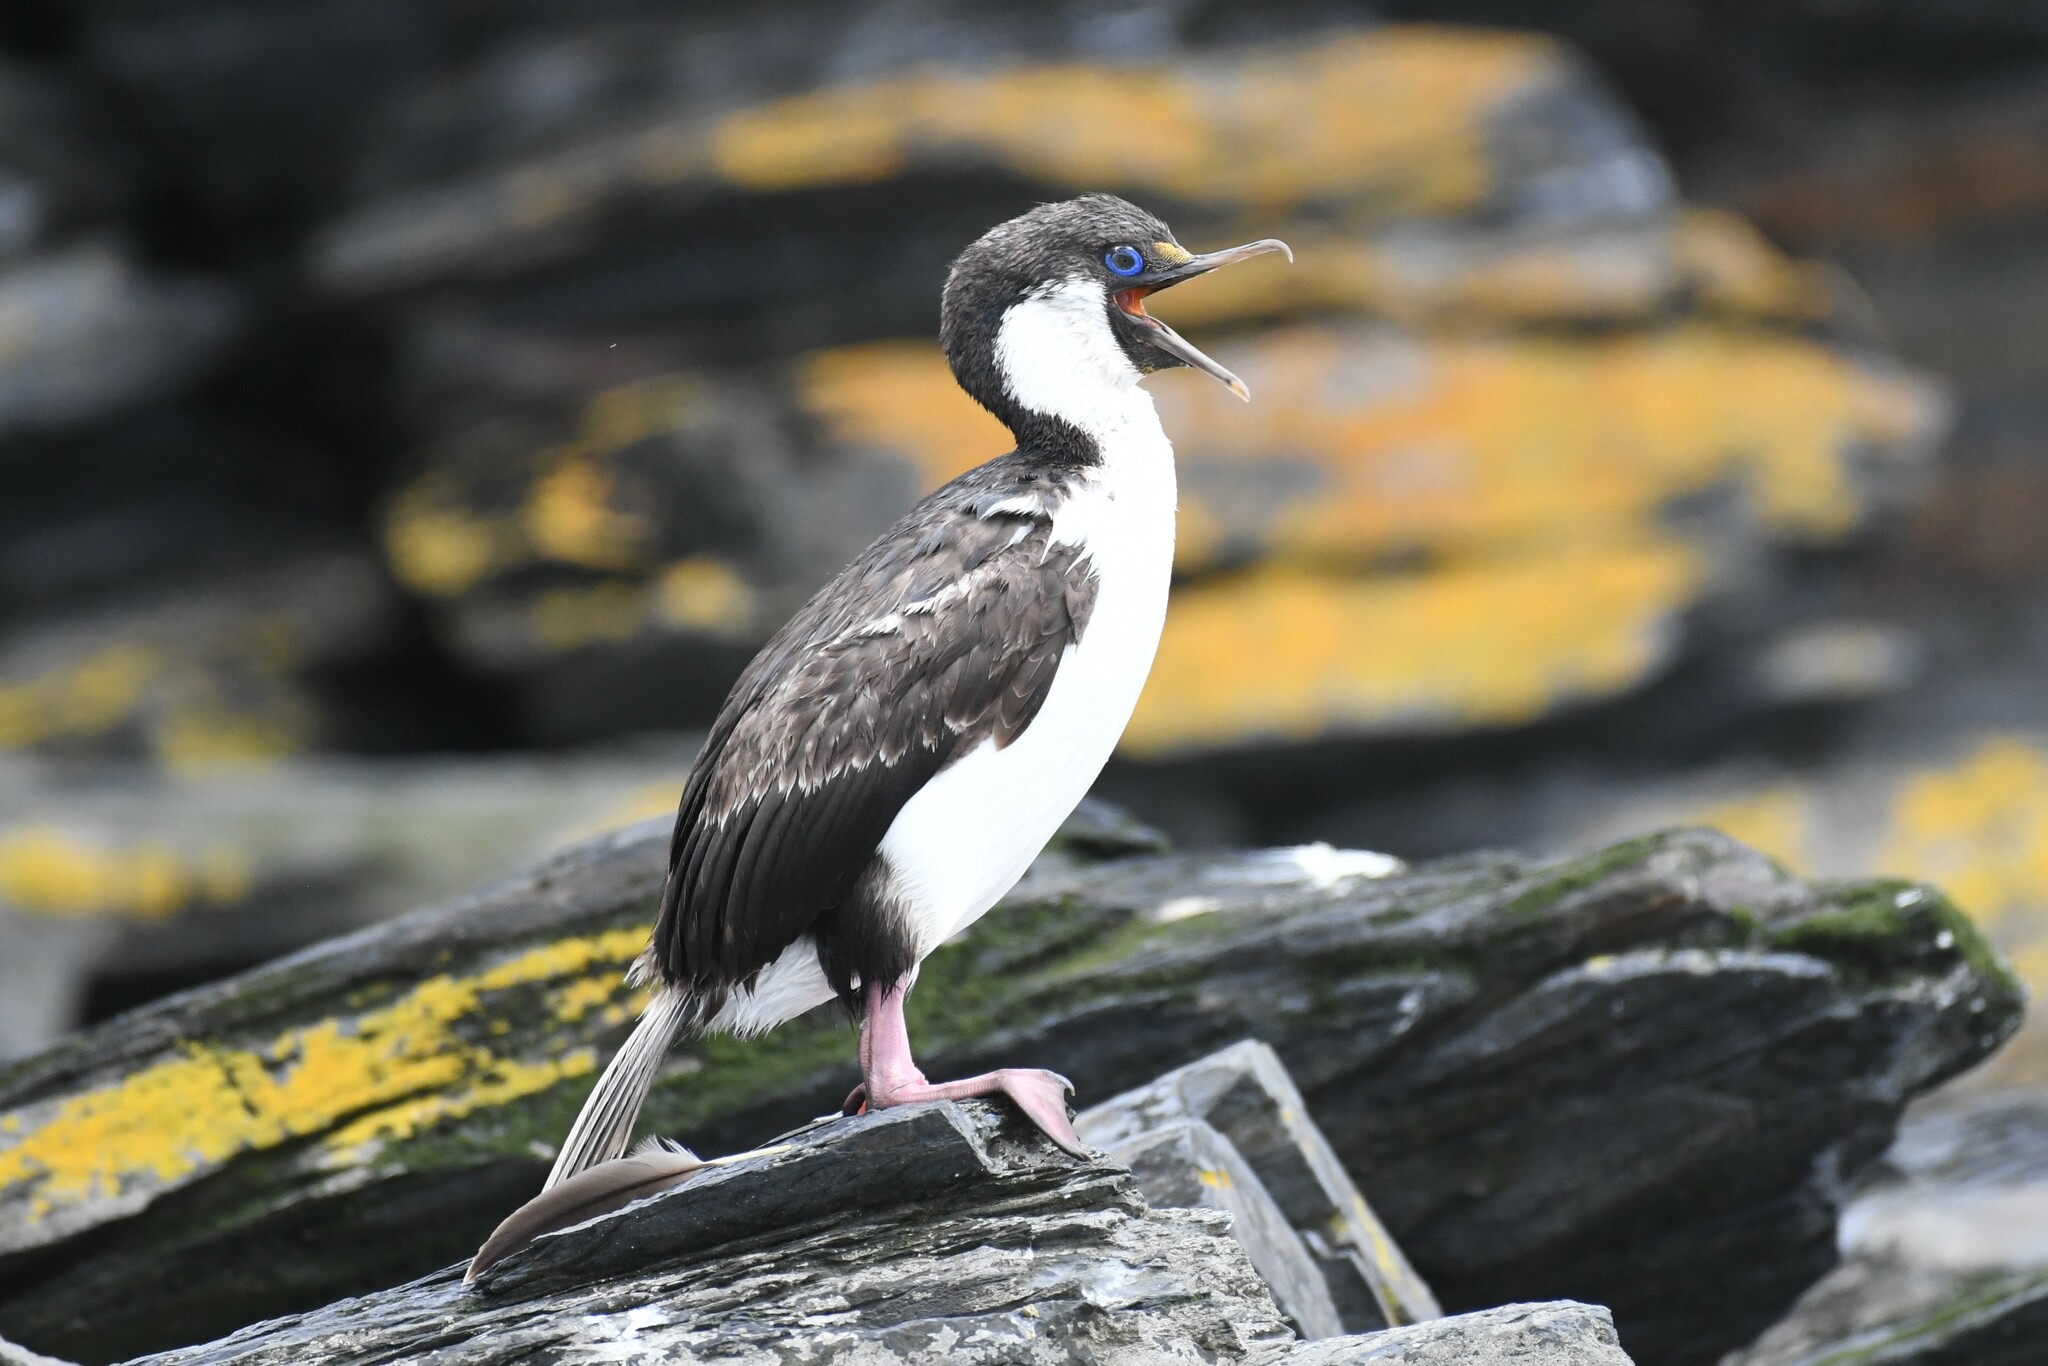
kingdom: Animalia
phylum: Chordata
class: Aves
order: Suliformes
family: Phalacrocoracidae
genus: Leucocarbo
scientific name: Leucocarbo atriceps
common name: Imperial shag
